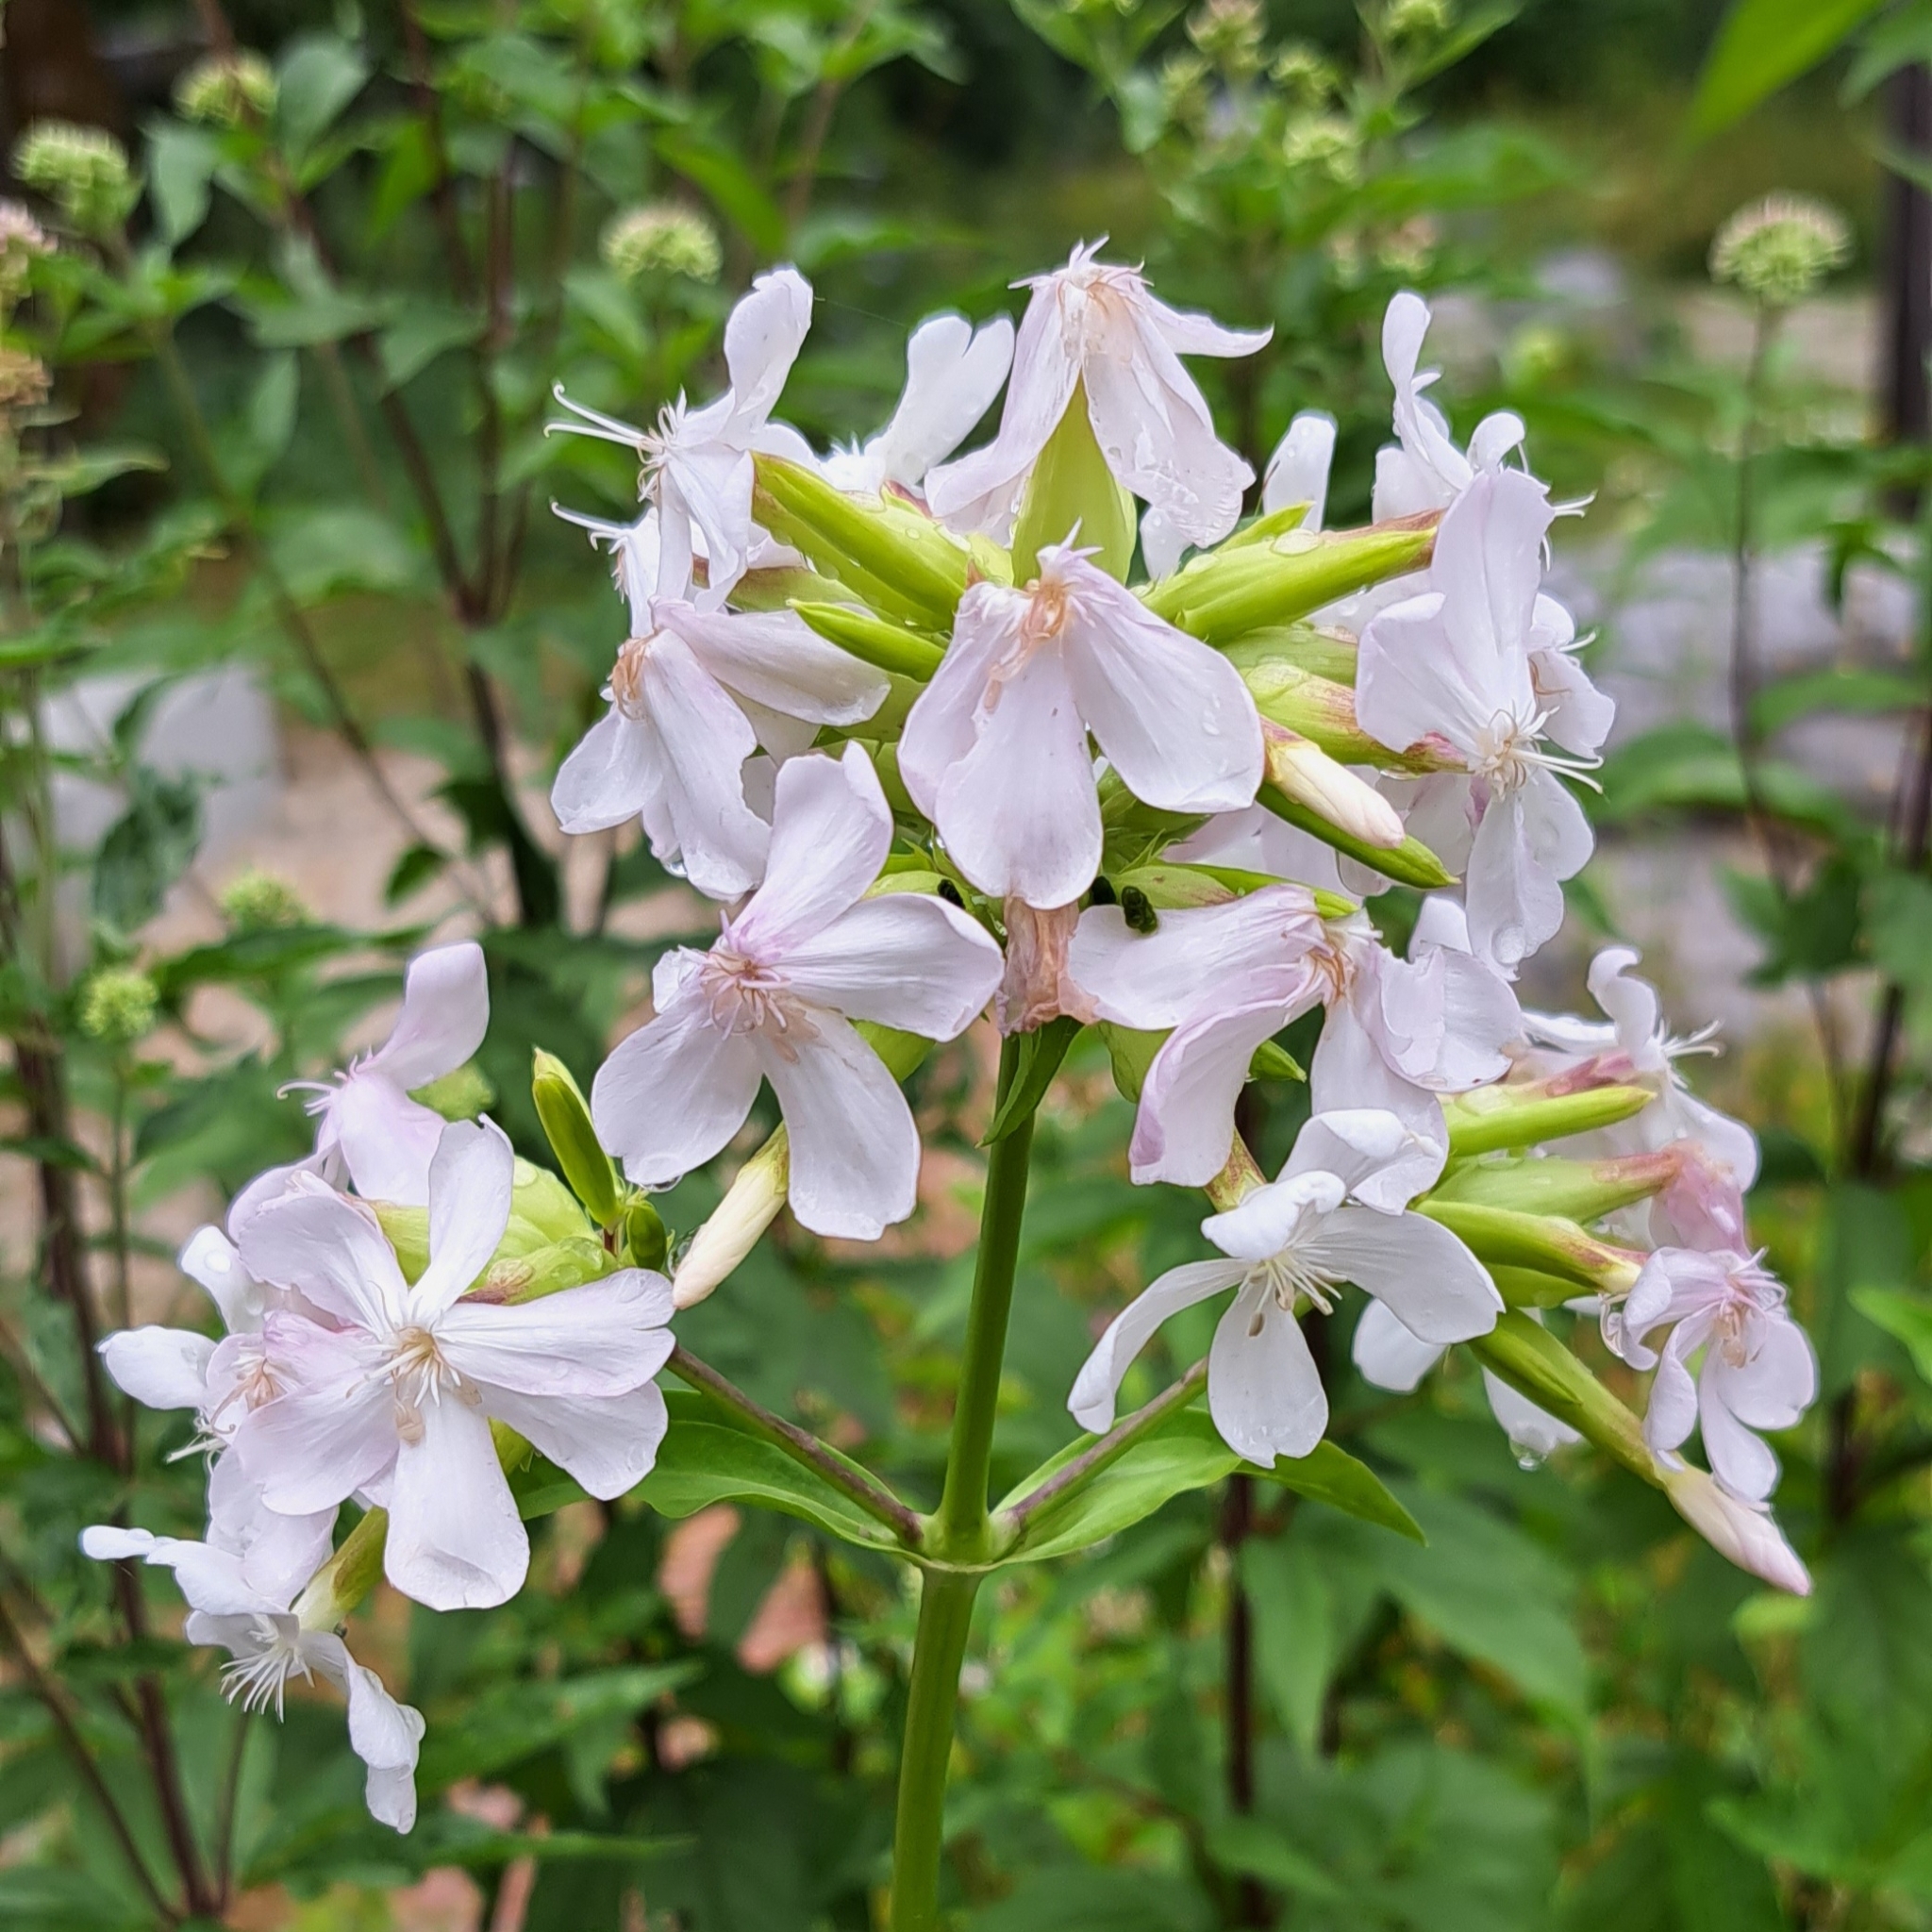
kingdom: Plantae
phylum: Tracheophyta
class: Magnoliopsida
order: Caryophyllales
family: Caryophyllaceae
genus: Saponaria
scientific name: Saponaria officinalis
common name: Soapwort
